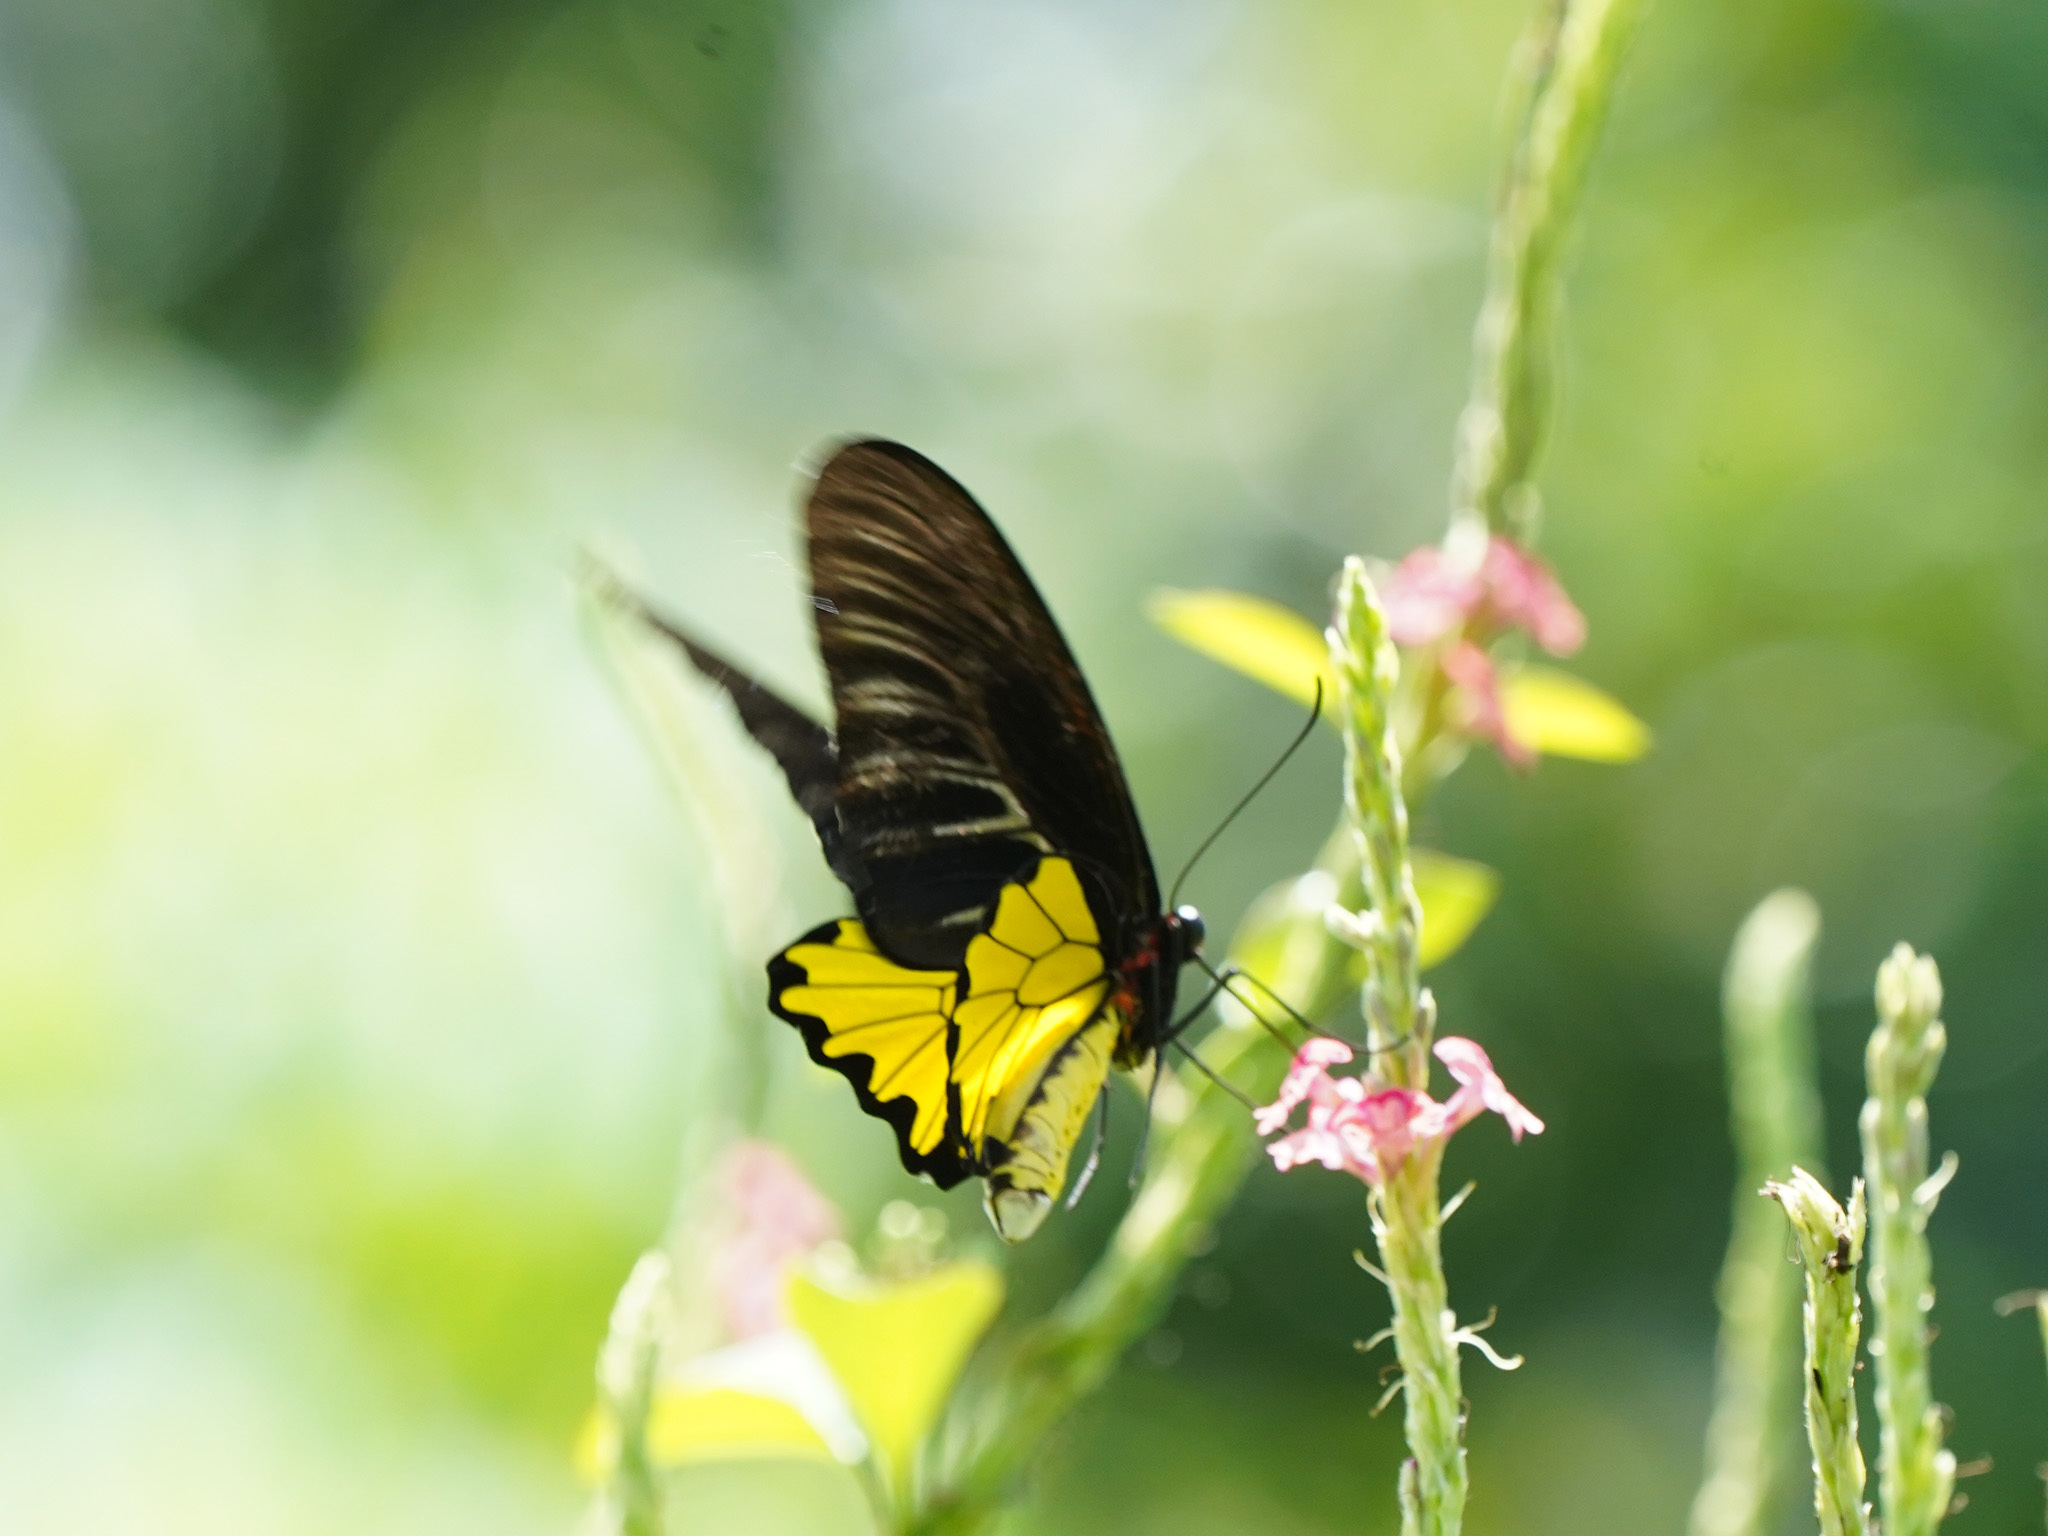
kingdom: Animalia
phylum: Arthropoda
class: Insecta
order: Lepidoptera
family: Papilionidae
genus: Troides
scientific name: Troides helena
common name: Common birdwing
